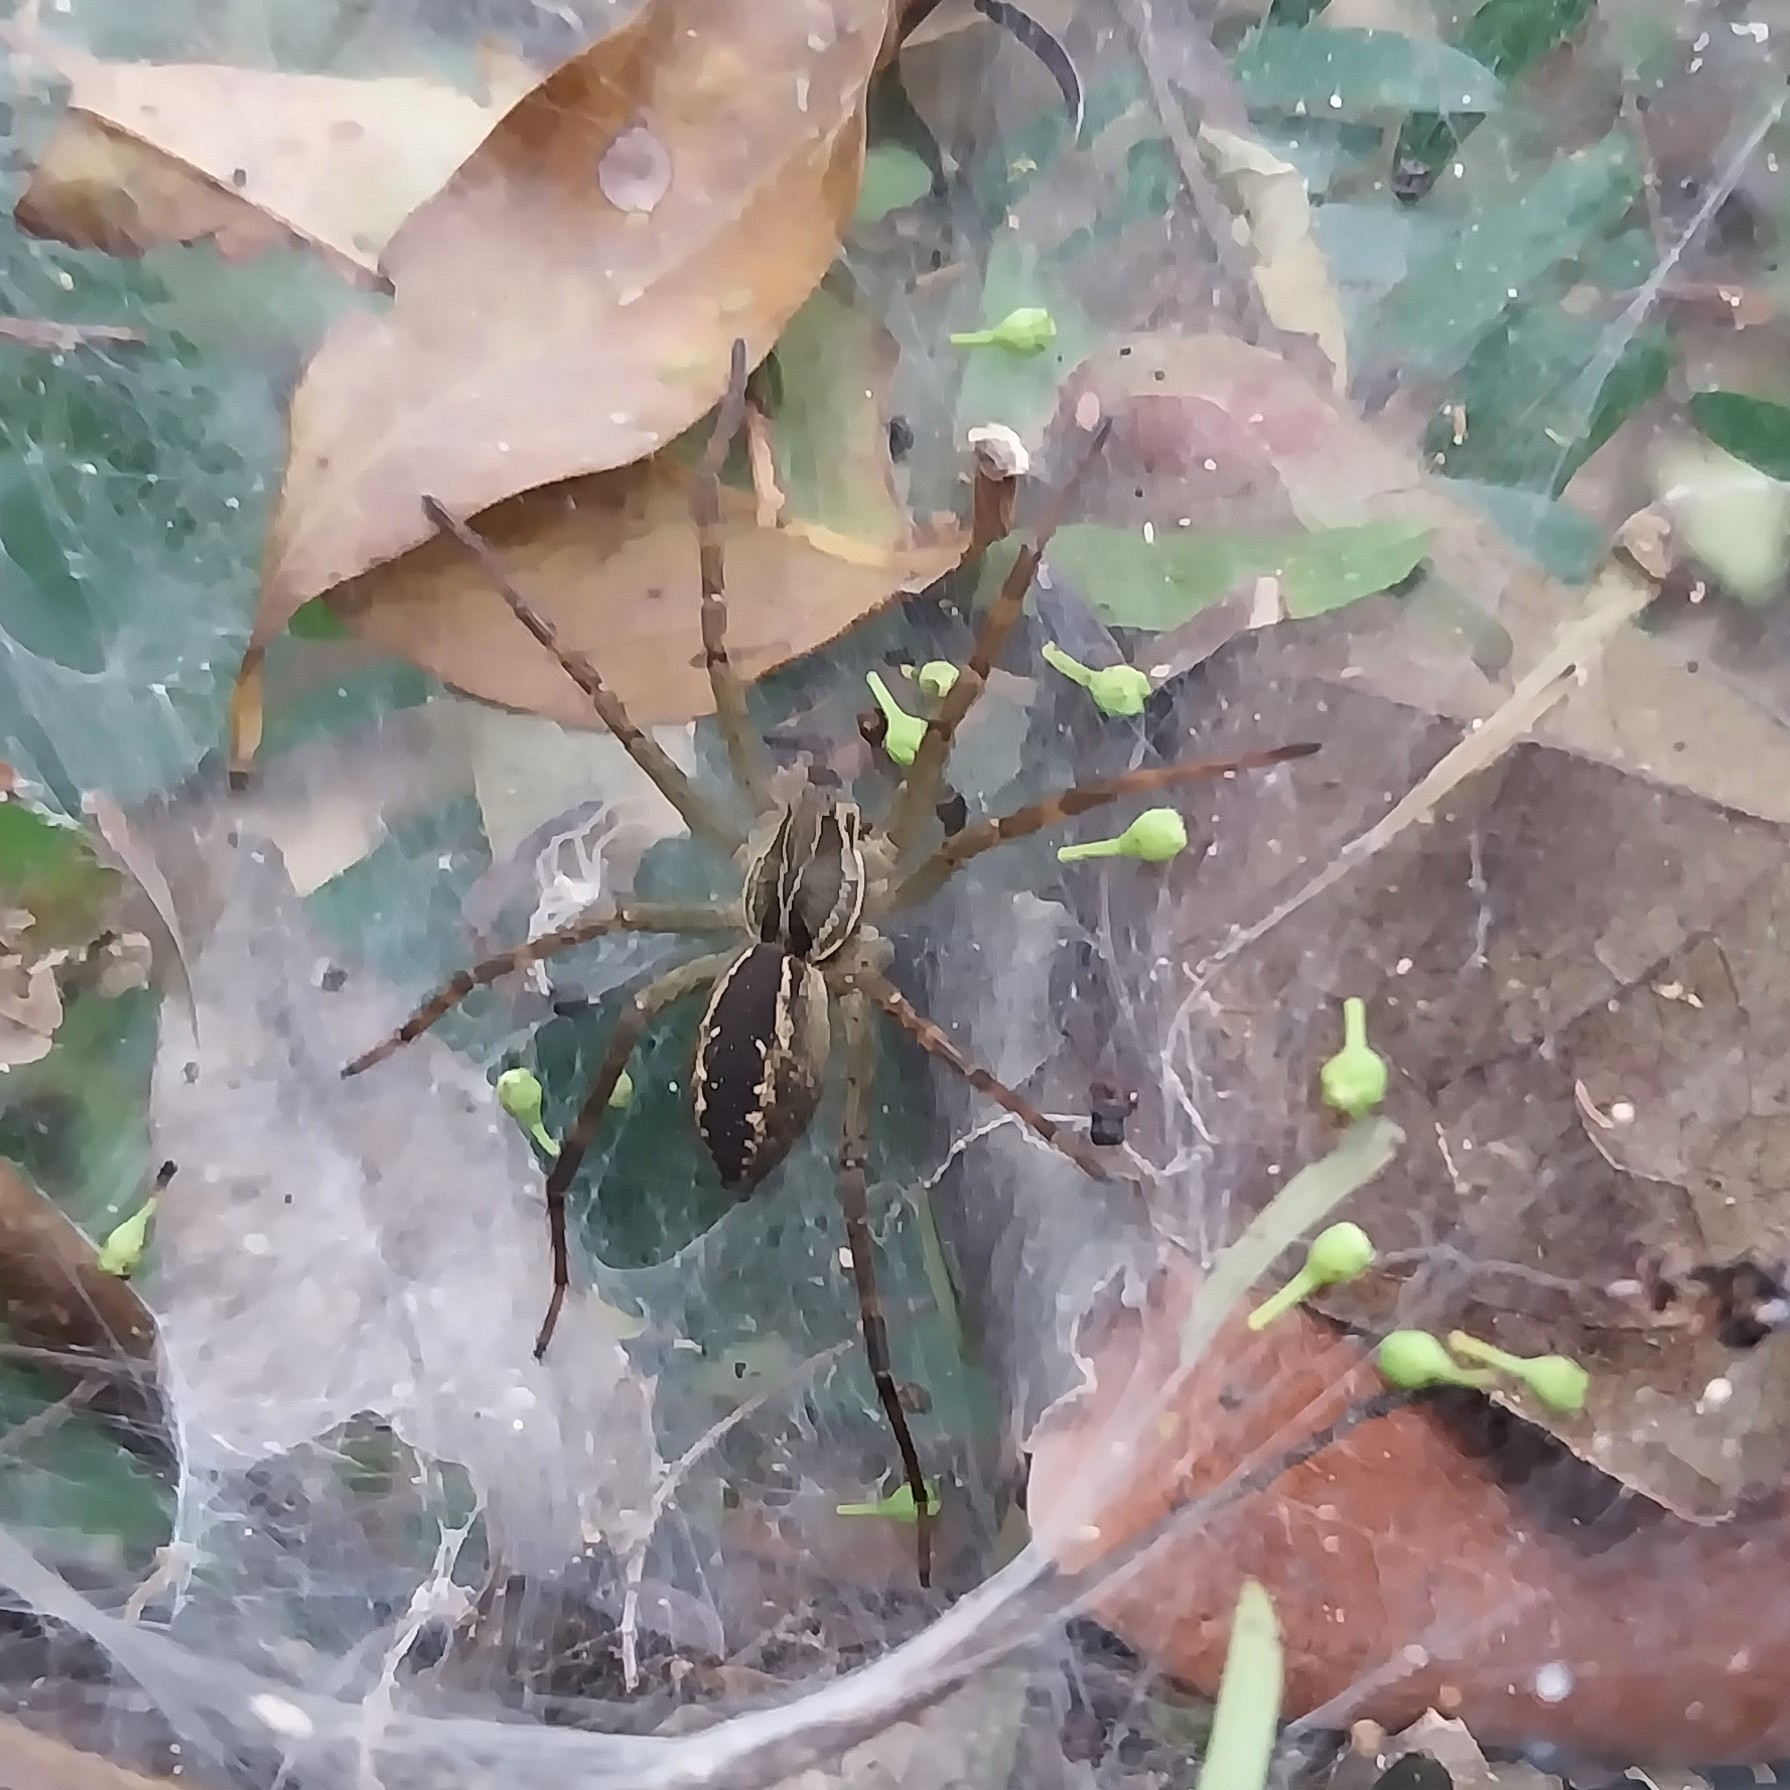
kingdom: Animalia
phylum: Arthropoda
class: Arachnida
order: Araneae
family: Lycosidae
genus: Aglaoctenus
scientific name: Aglaoctenus lagotis
